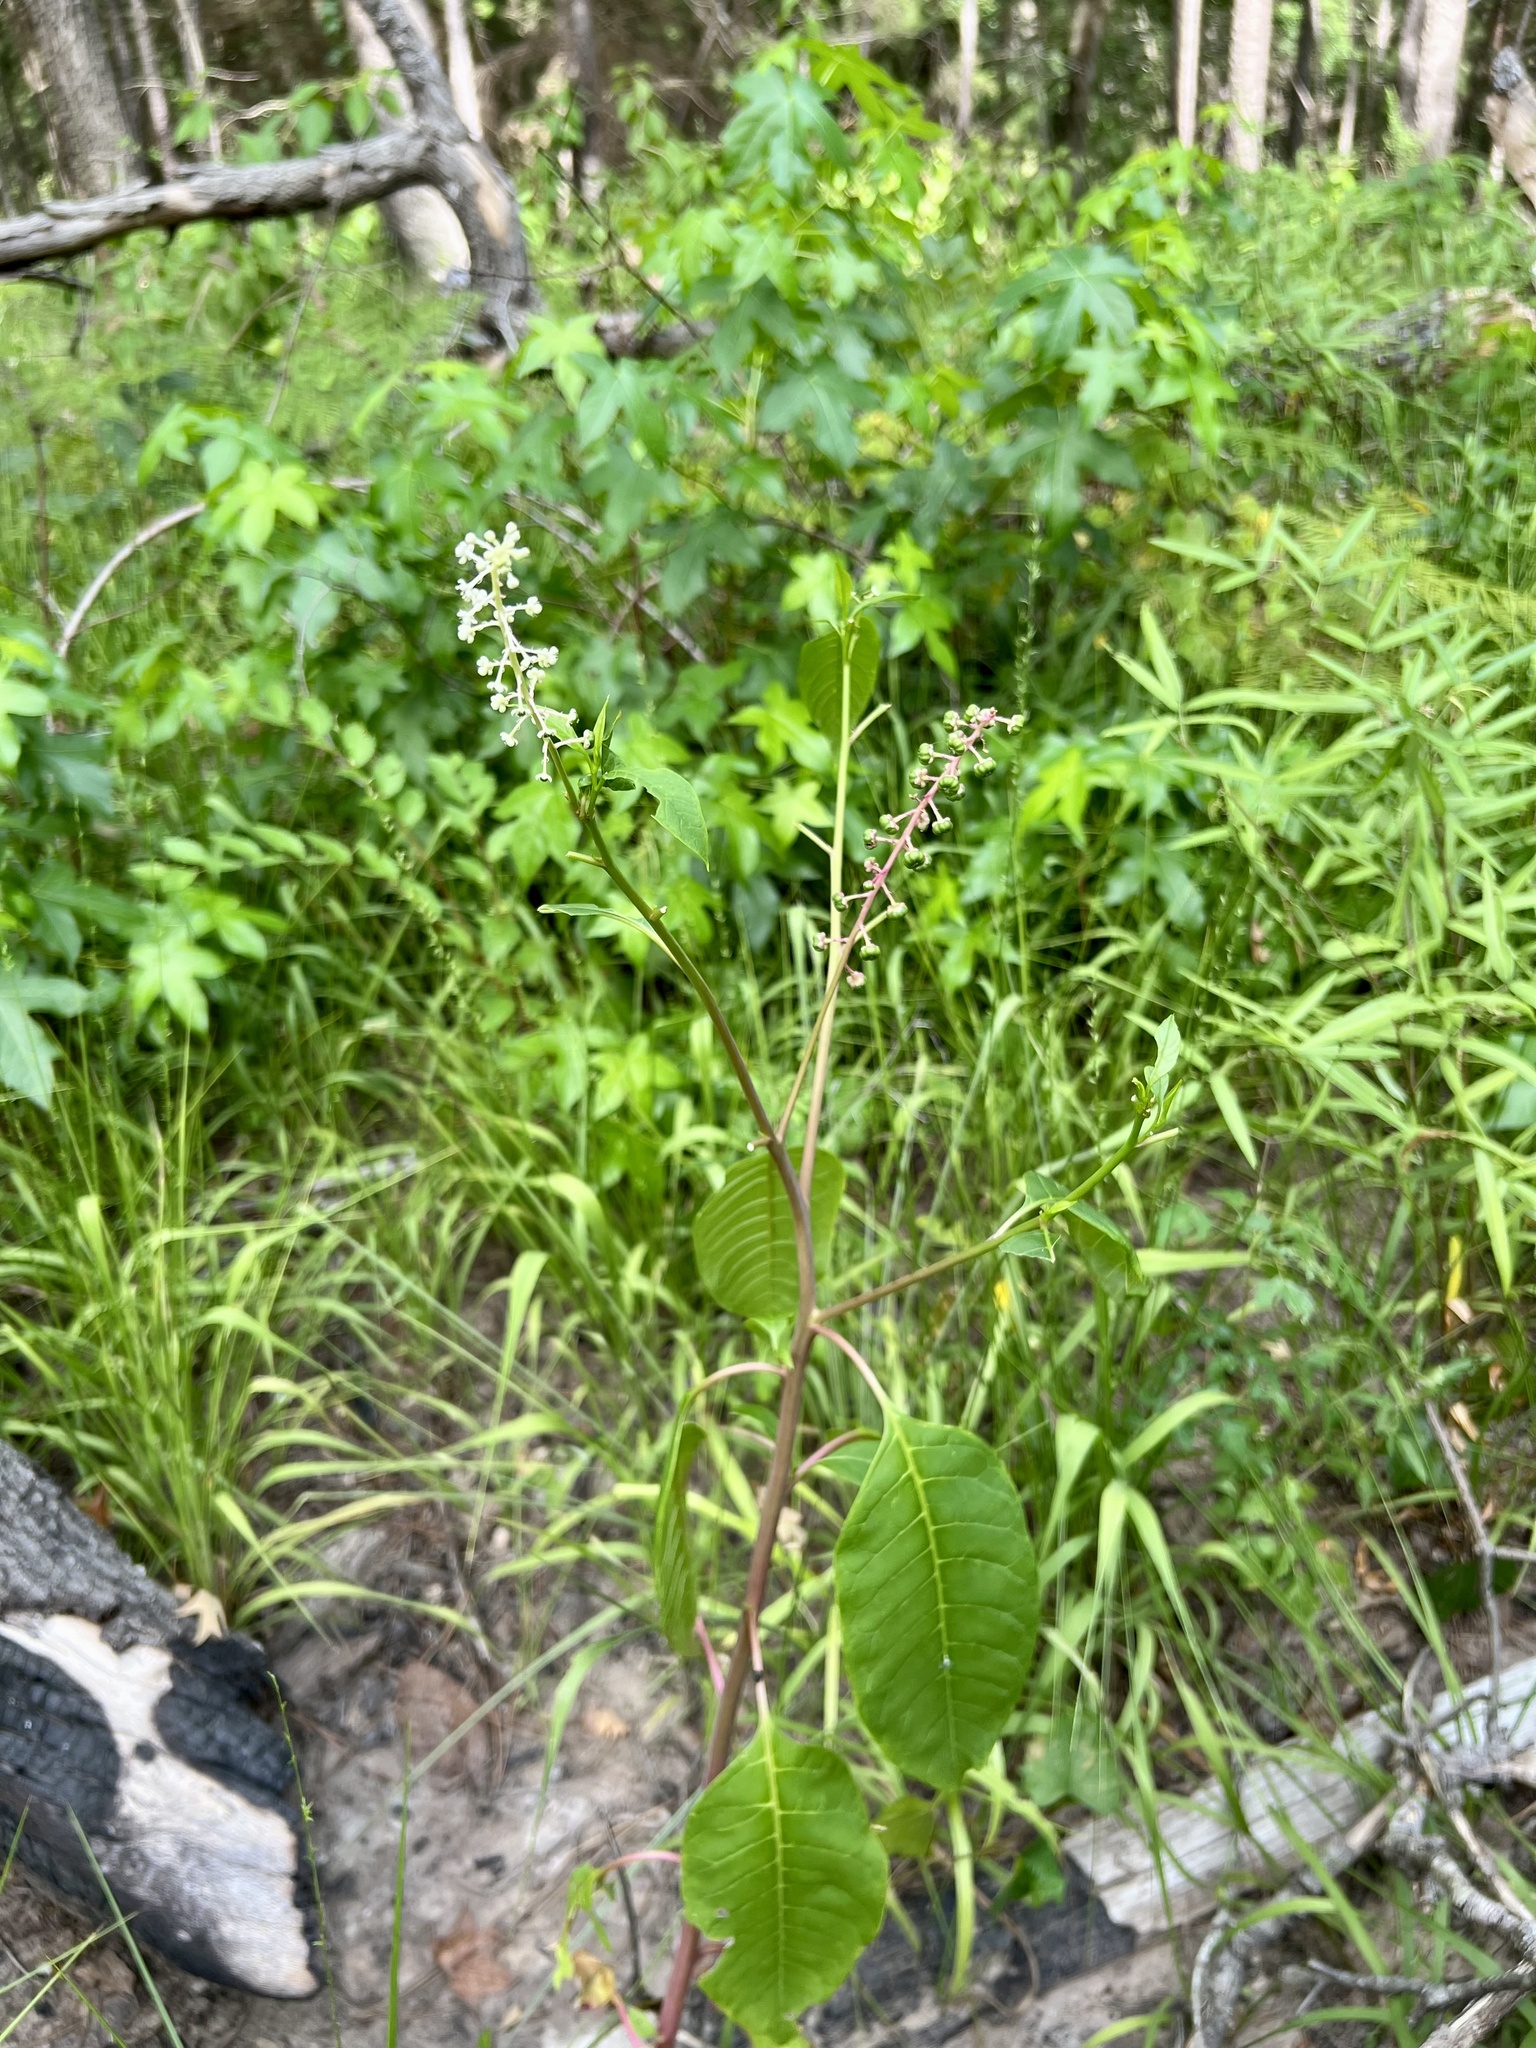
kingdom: Plantae
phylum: Tracheophyta
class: Magnoliopsida
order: Caryophyllales
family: Phytolaccaceae
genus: Phytolacca
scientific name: Phytolacca americana
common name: American pokeweed
